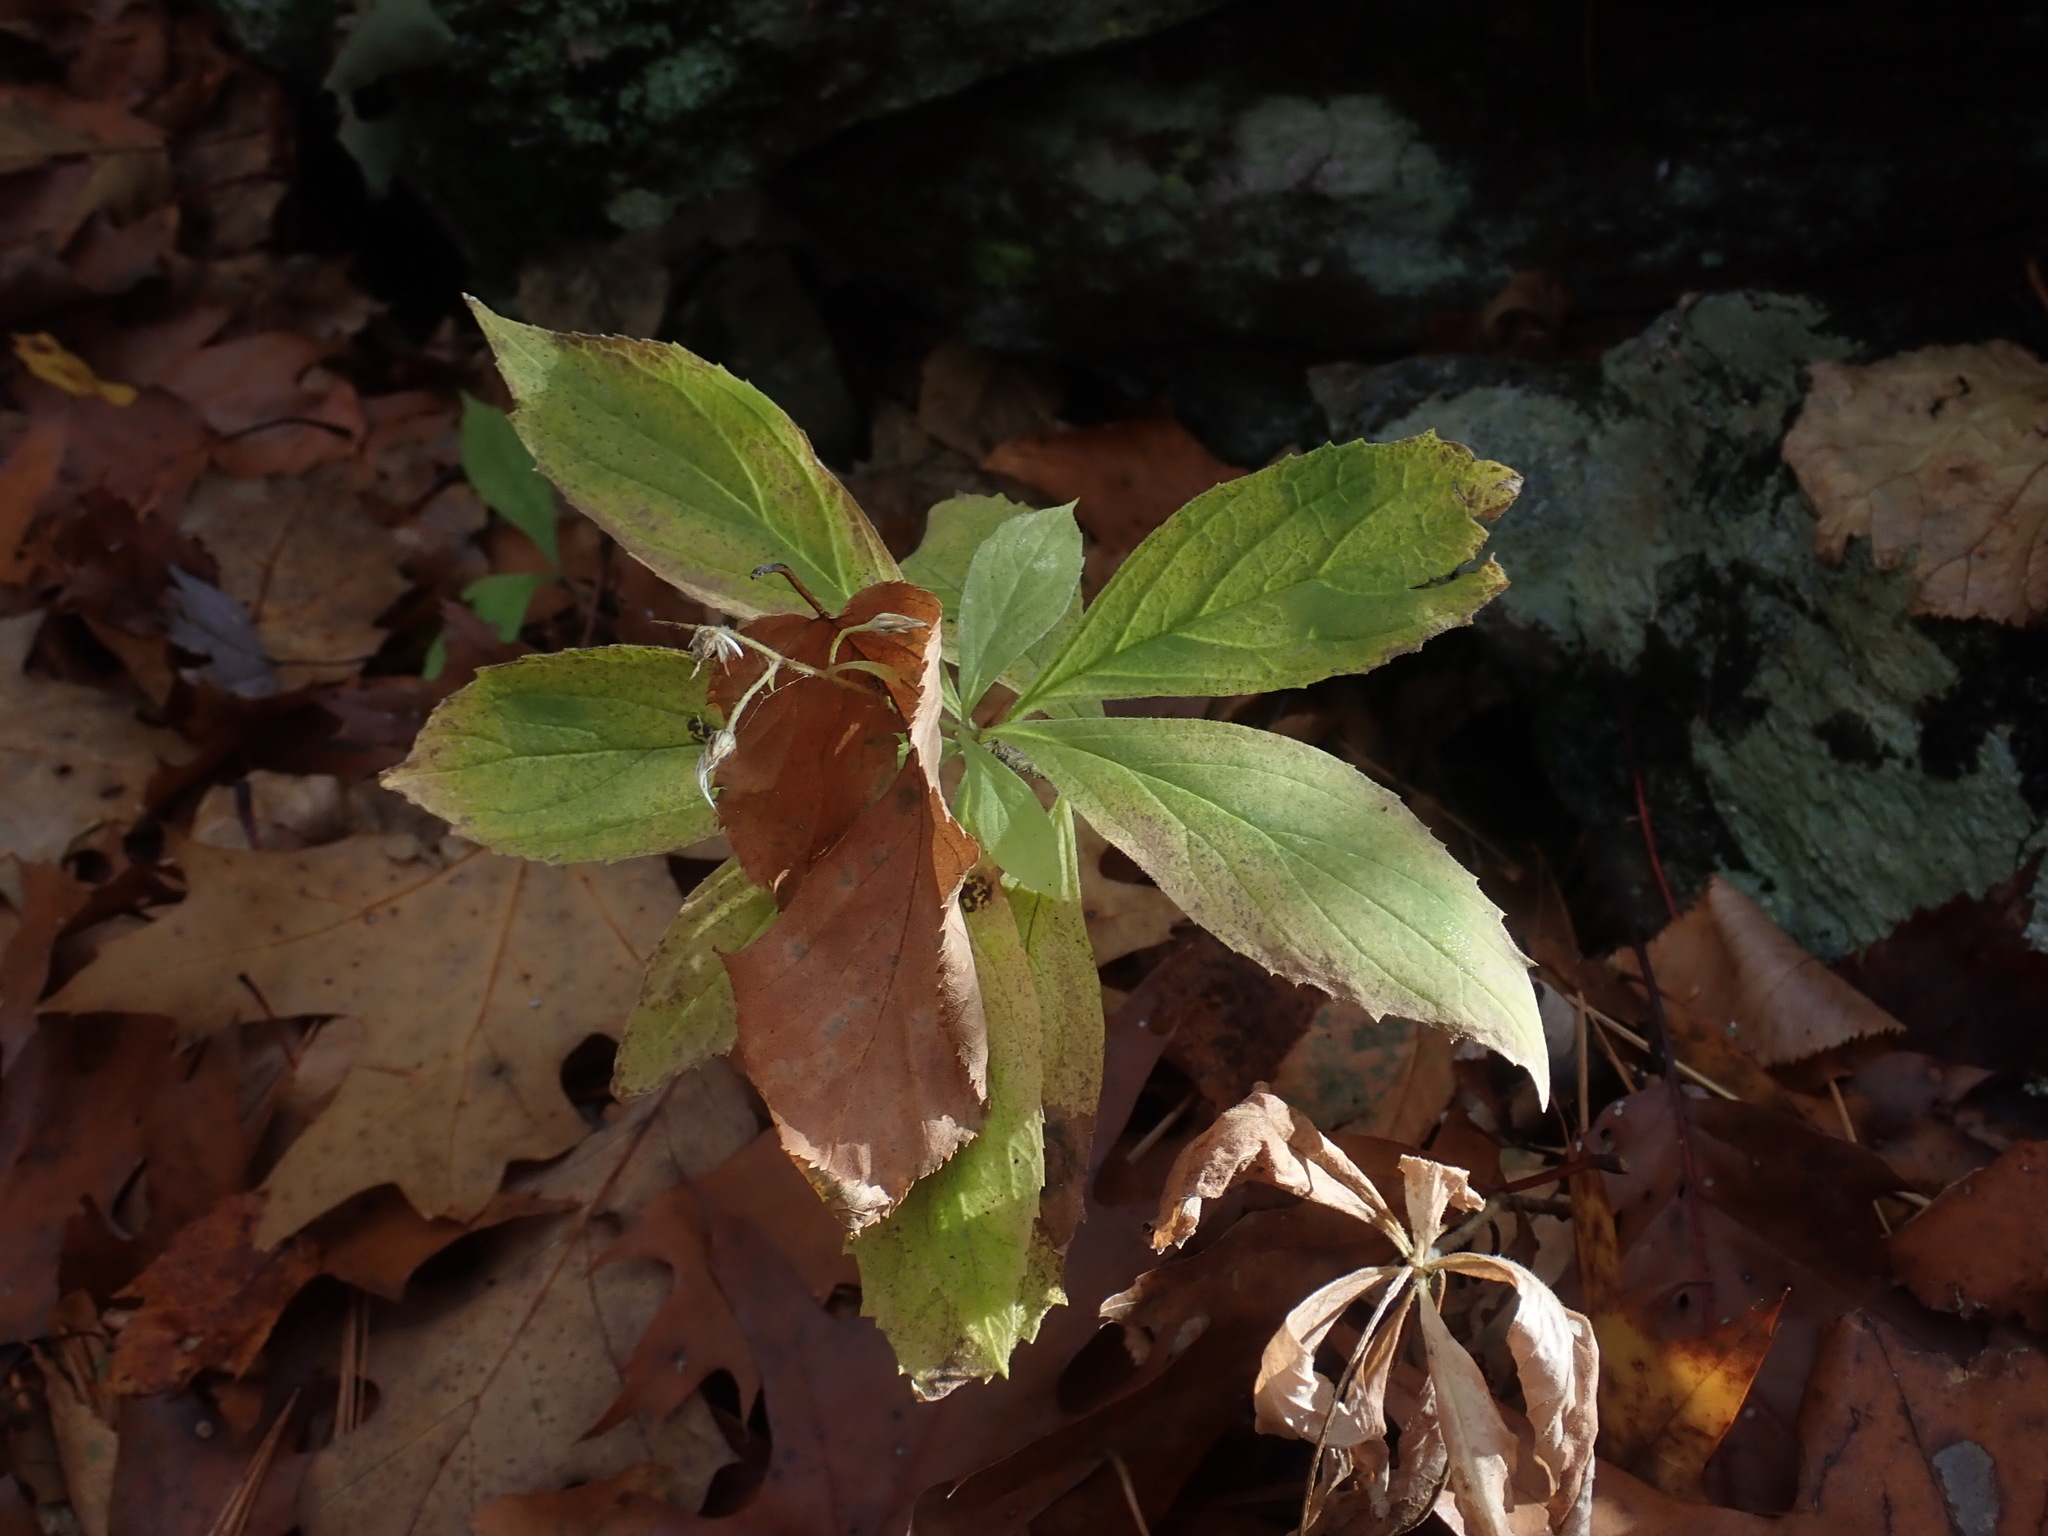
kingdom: Plantae
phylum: Tracheophyta
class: Magnoliopsida
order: Asterales
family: Asteraceae
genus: Oclemena
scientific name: Oclemena acuminata
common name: Mountain aster
